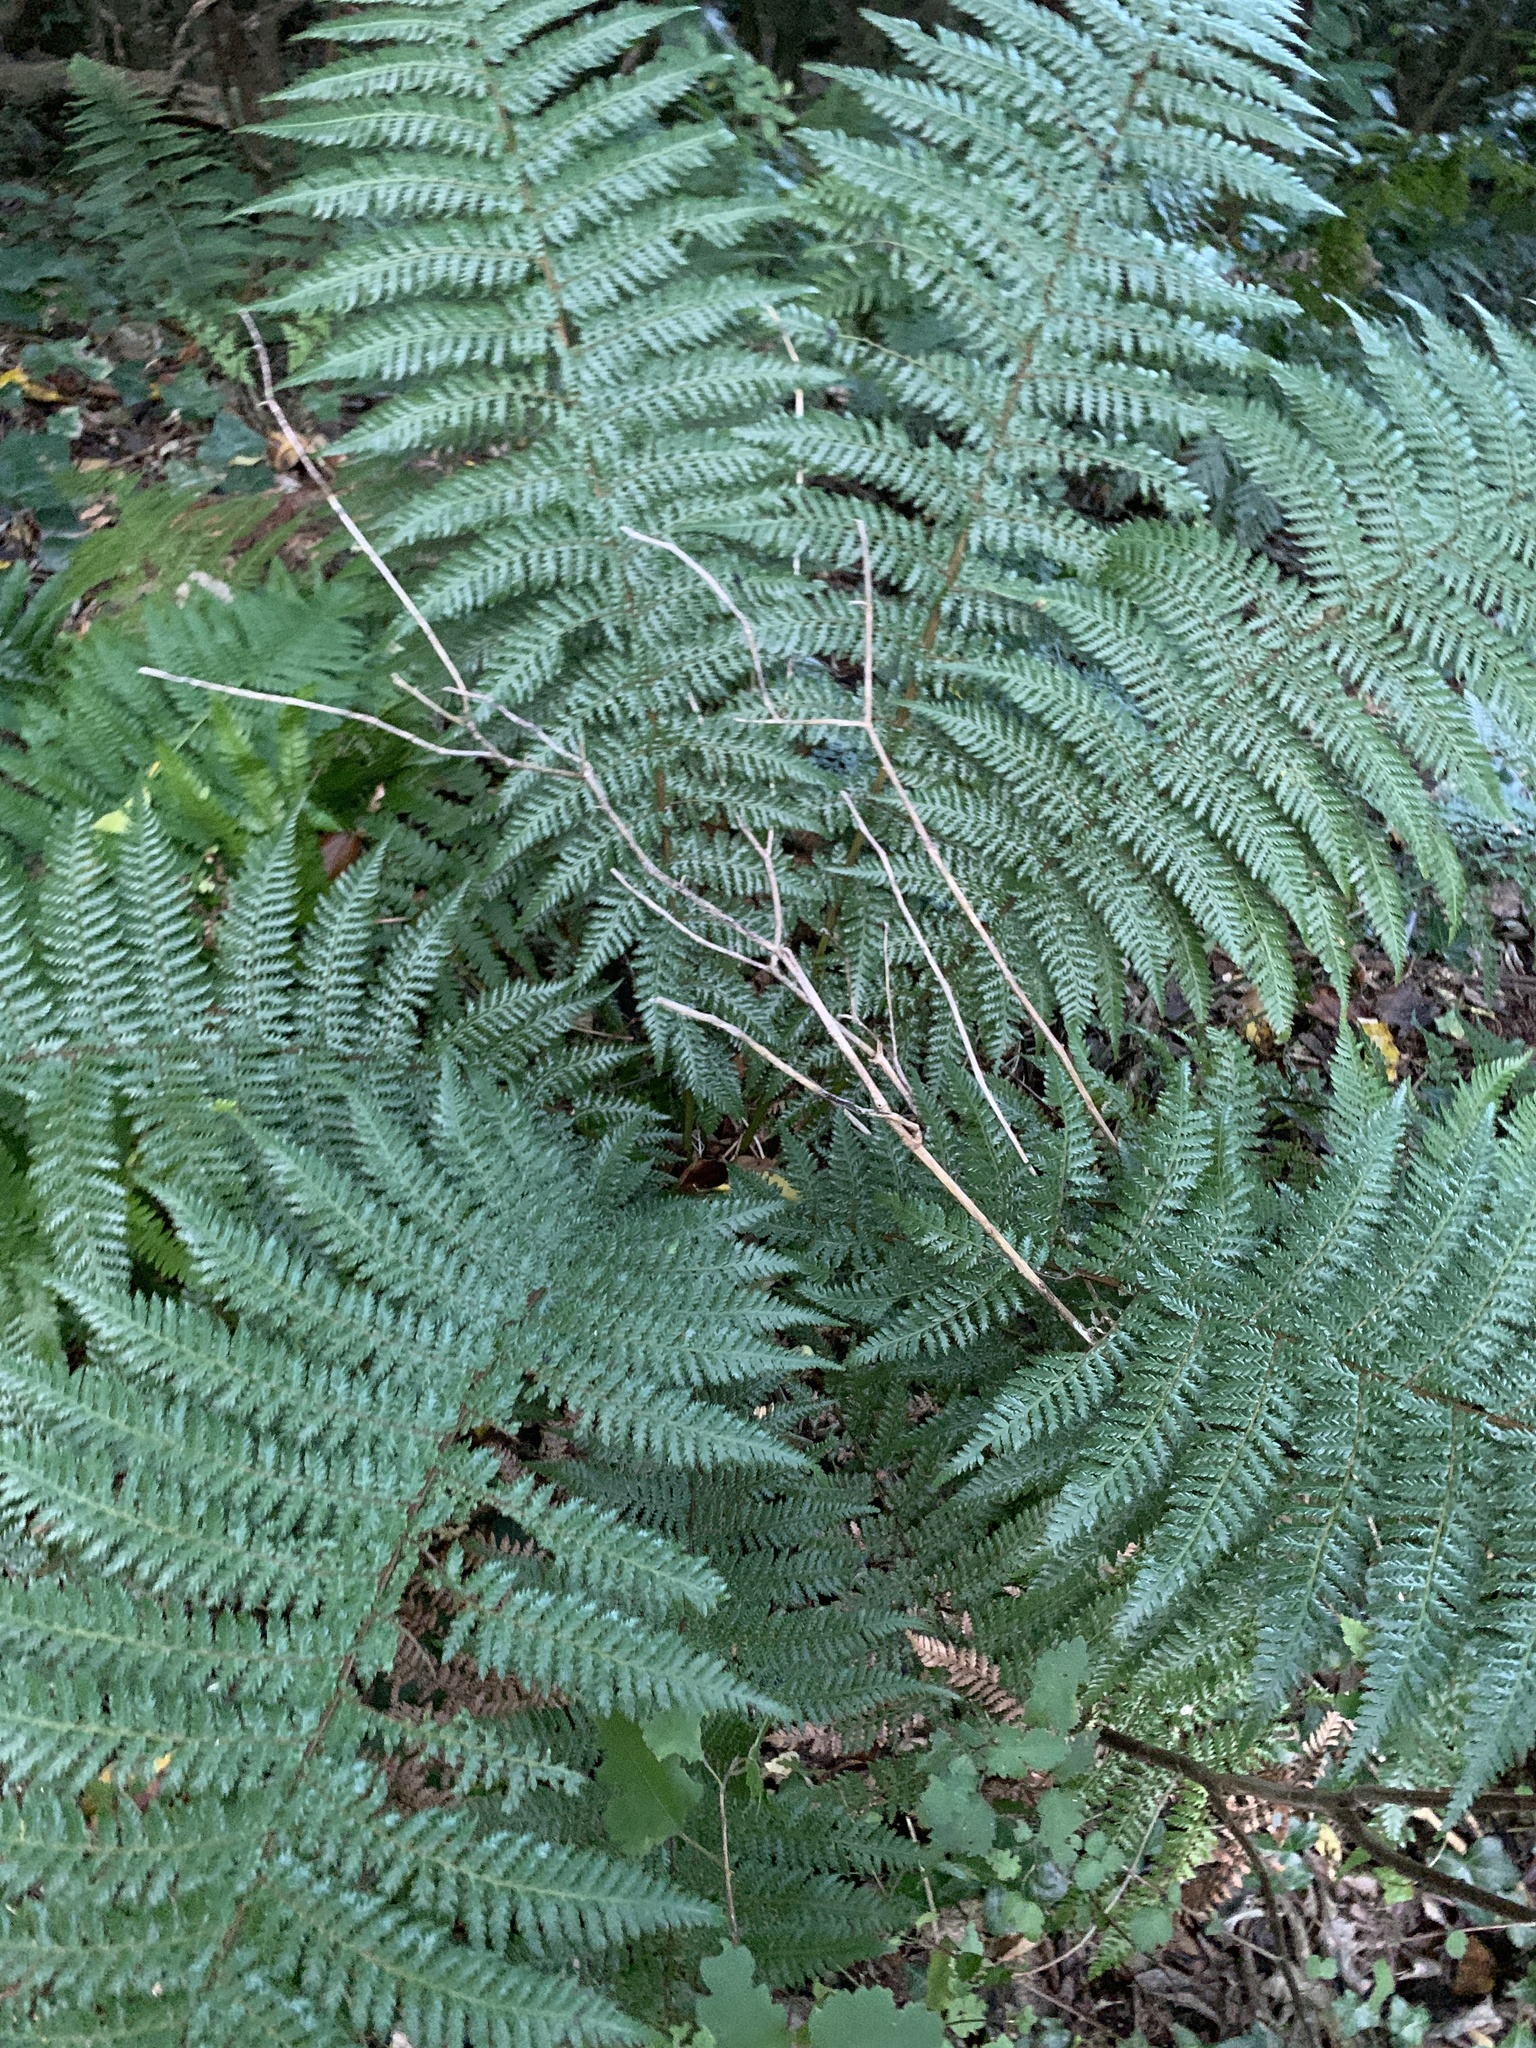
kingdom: Plantae
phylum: Tracheophyta
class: Polypodiopsida
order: Cyatheales
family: Dicksoniaceae
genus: Dicksonia
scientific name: Dicksonia fibrosa
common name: Golden tree fern
